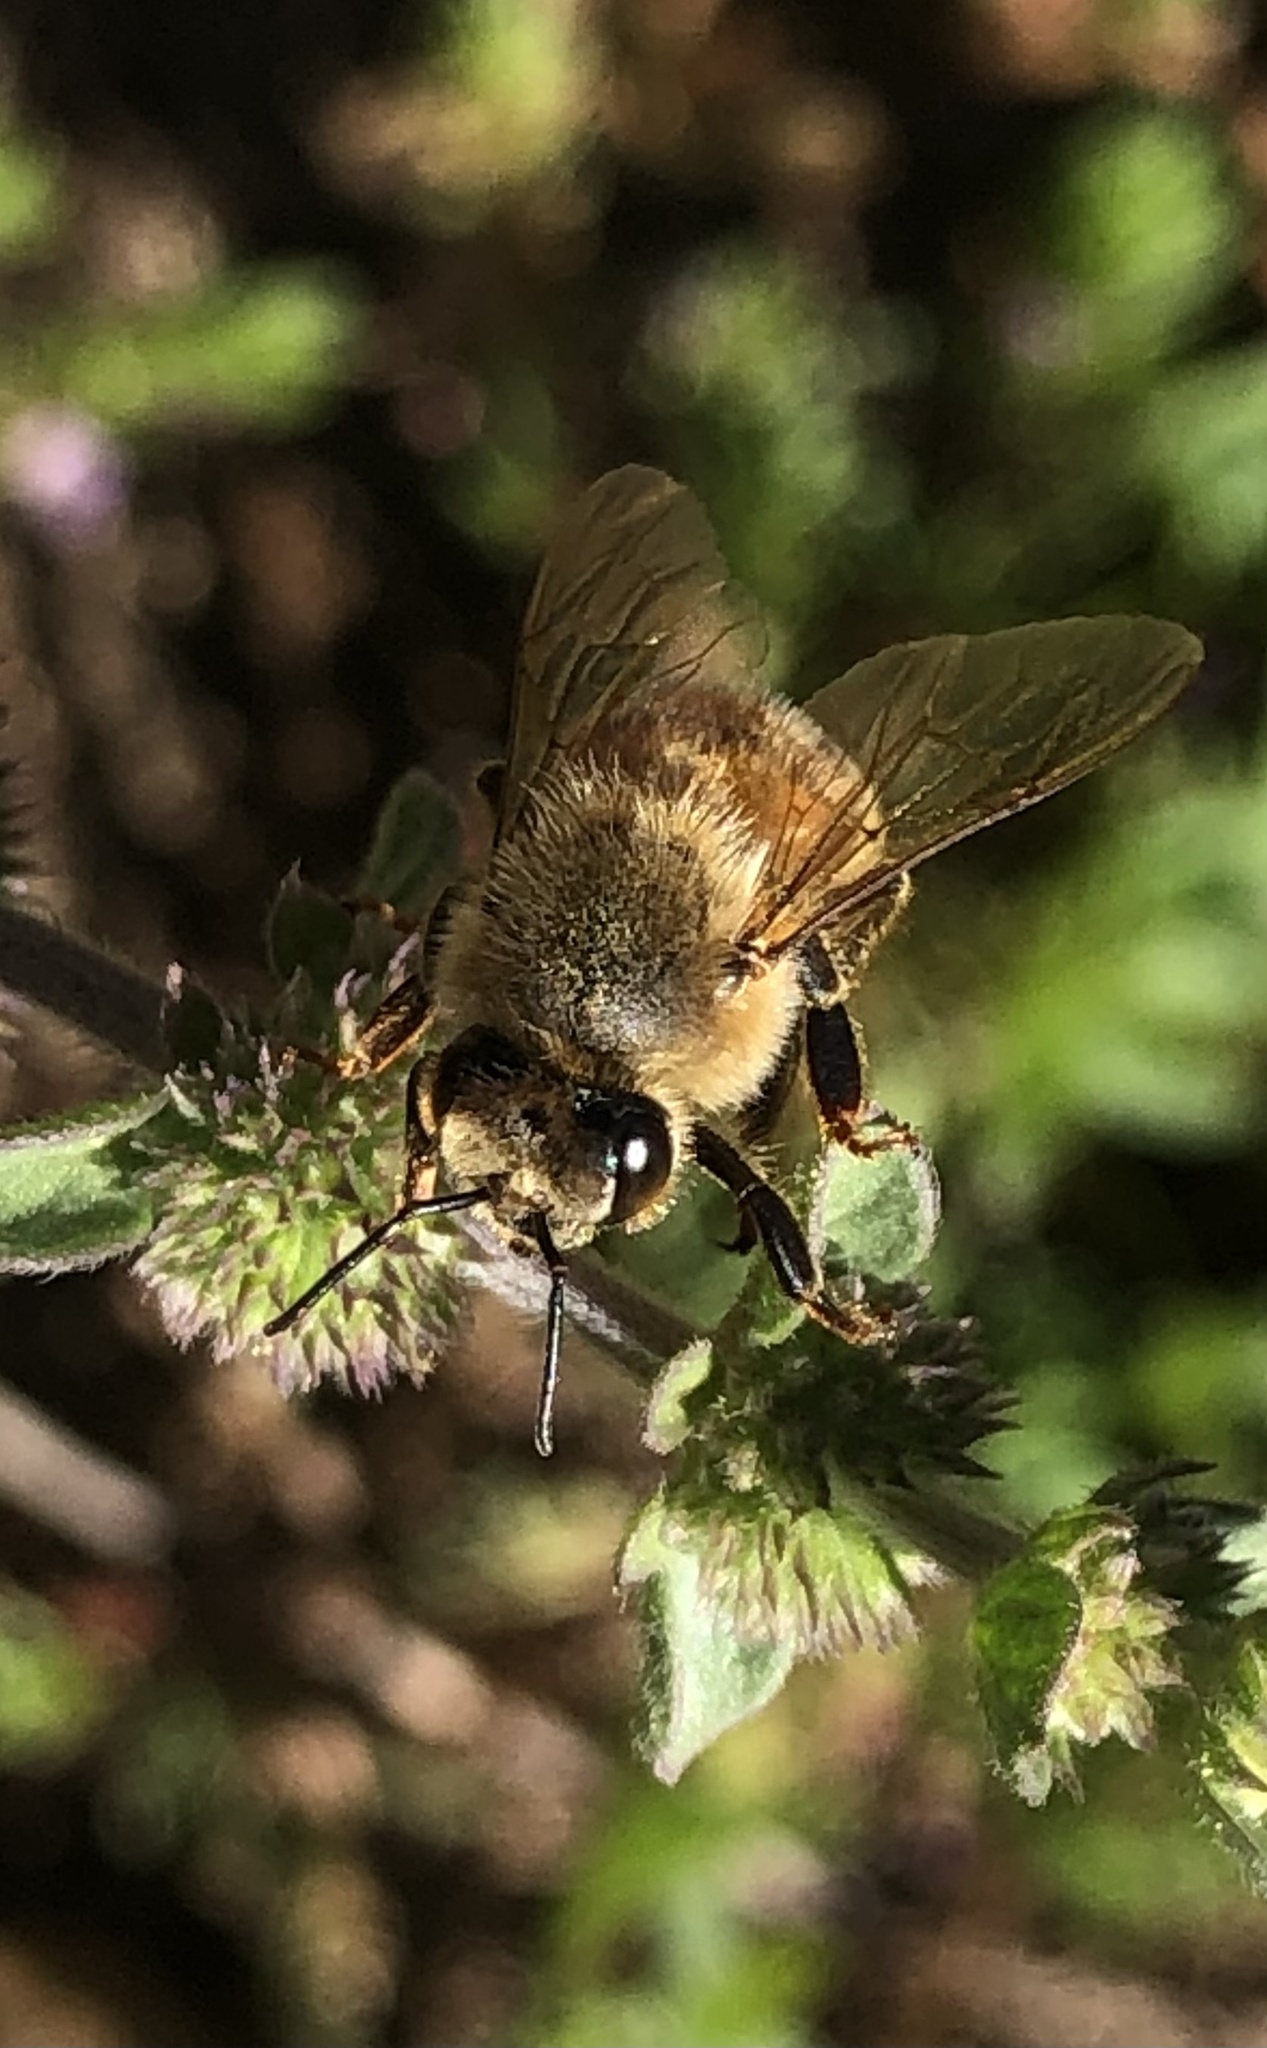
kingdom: Animalia
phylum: Arthropoda
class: Insecta
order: Hymenoptera
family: Apidae
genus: Apis
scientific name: Apis mellifera
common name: Honey bee
